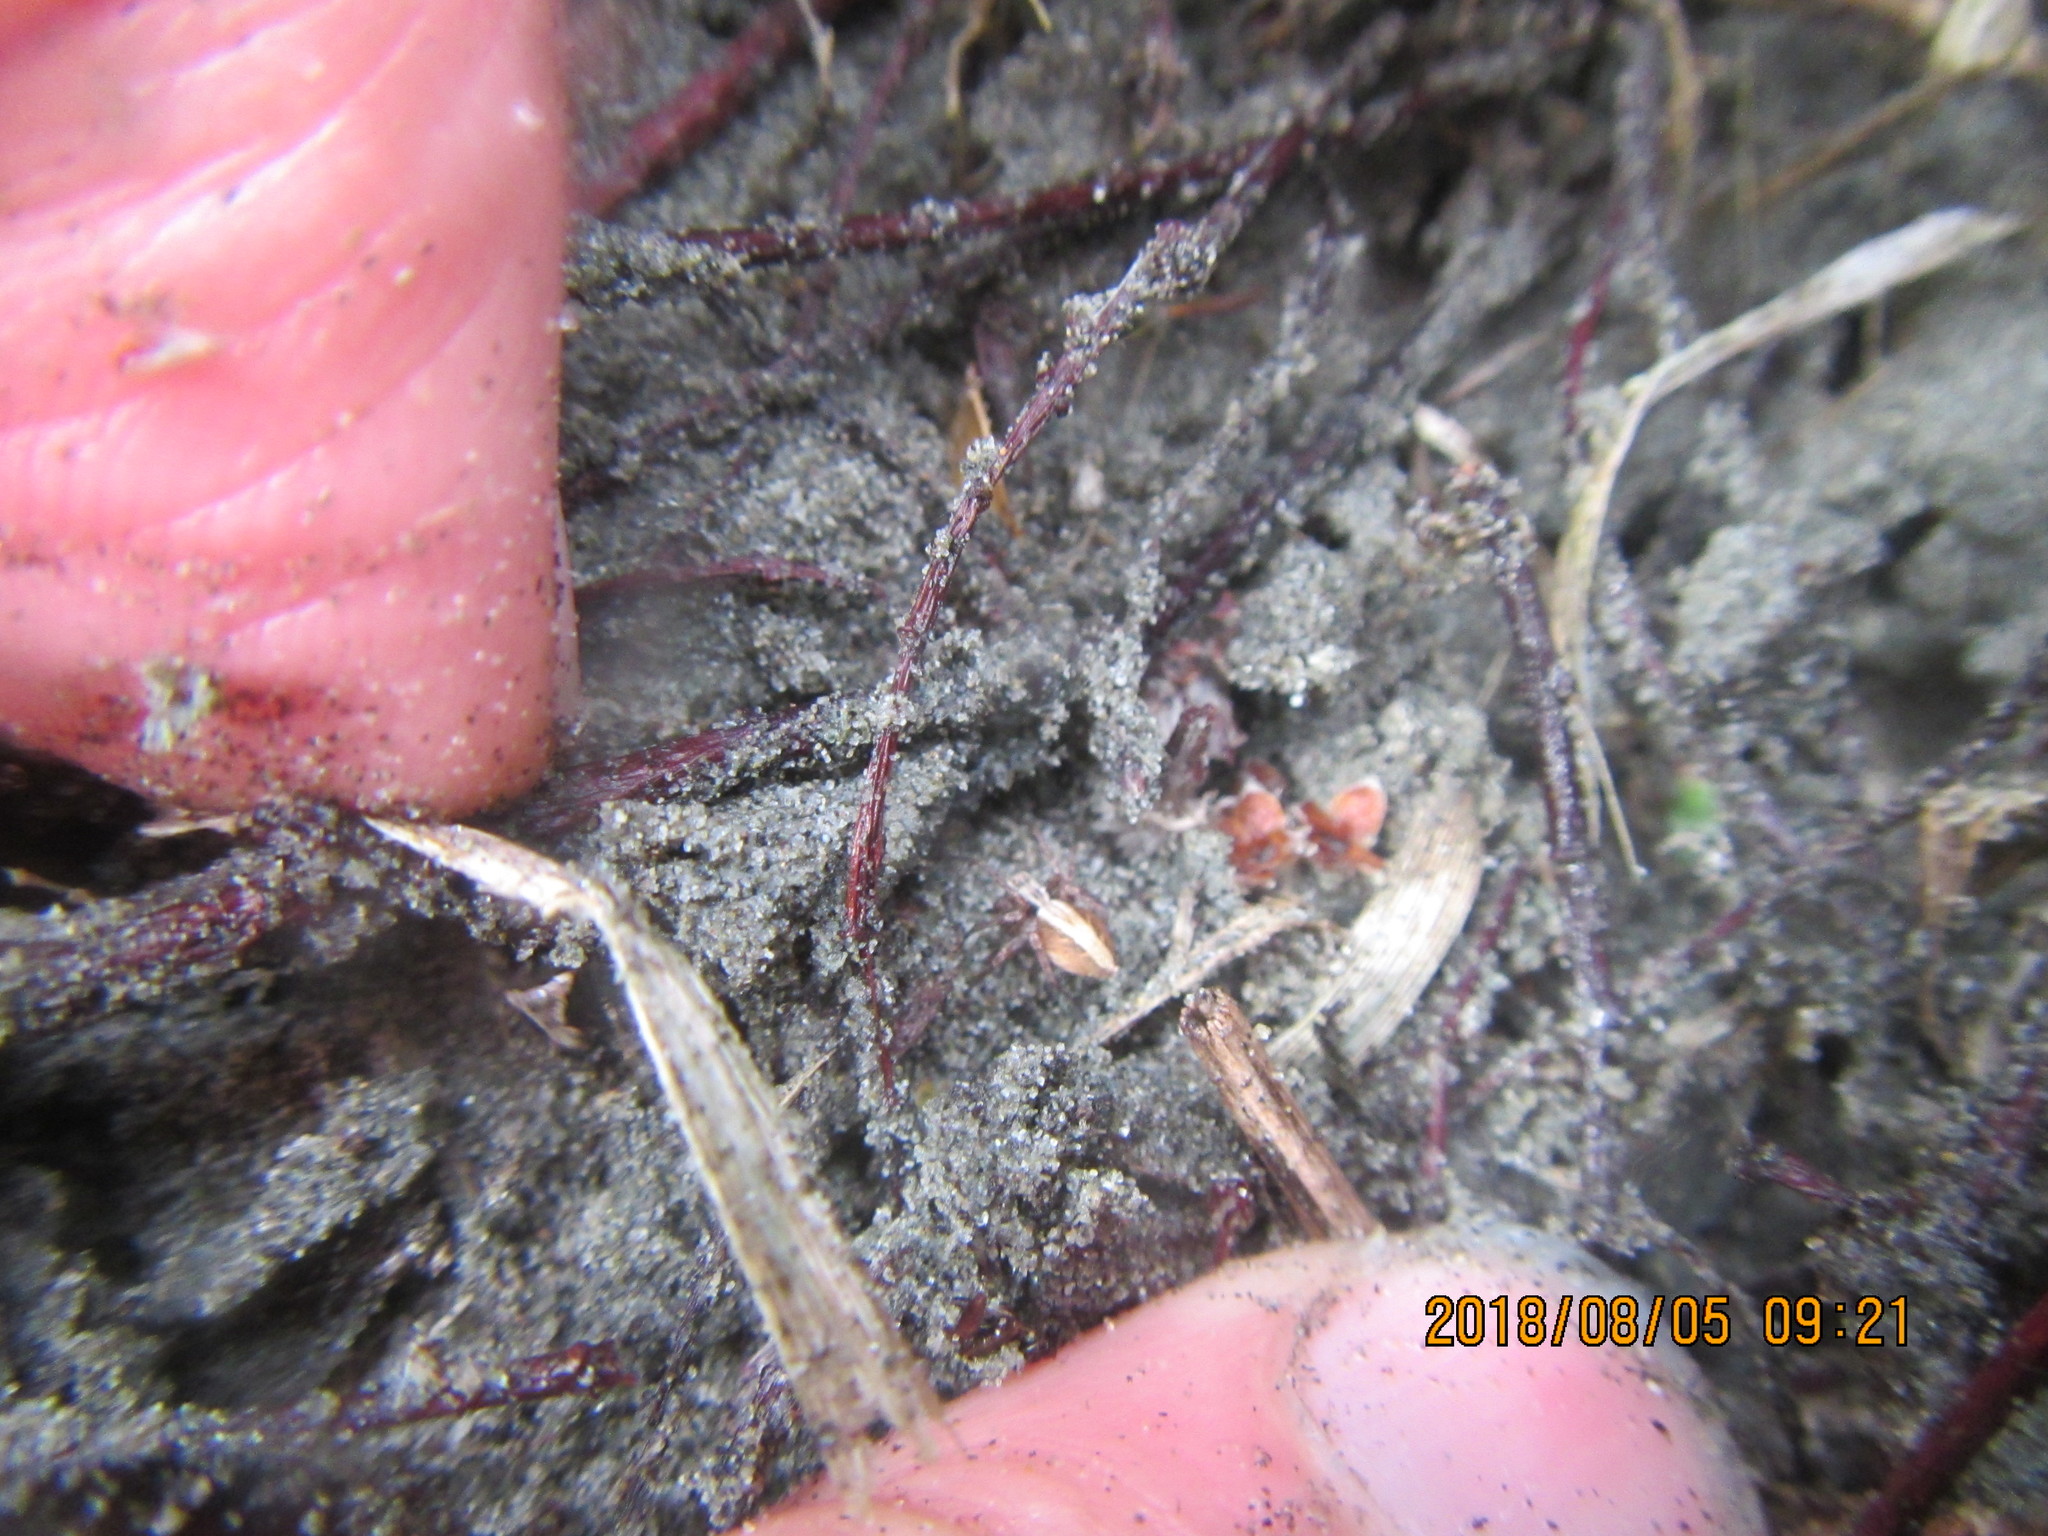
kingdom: Animalia
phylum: Arthropoda
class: Arachnida
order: Araneae
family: Oxyopidae
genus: Oxyopes
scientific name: Oxyopes gracilipes
